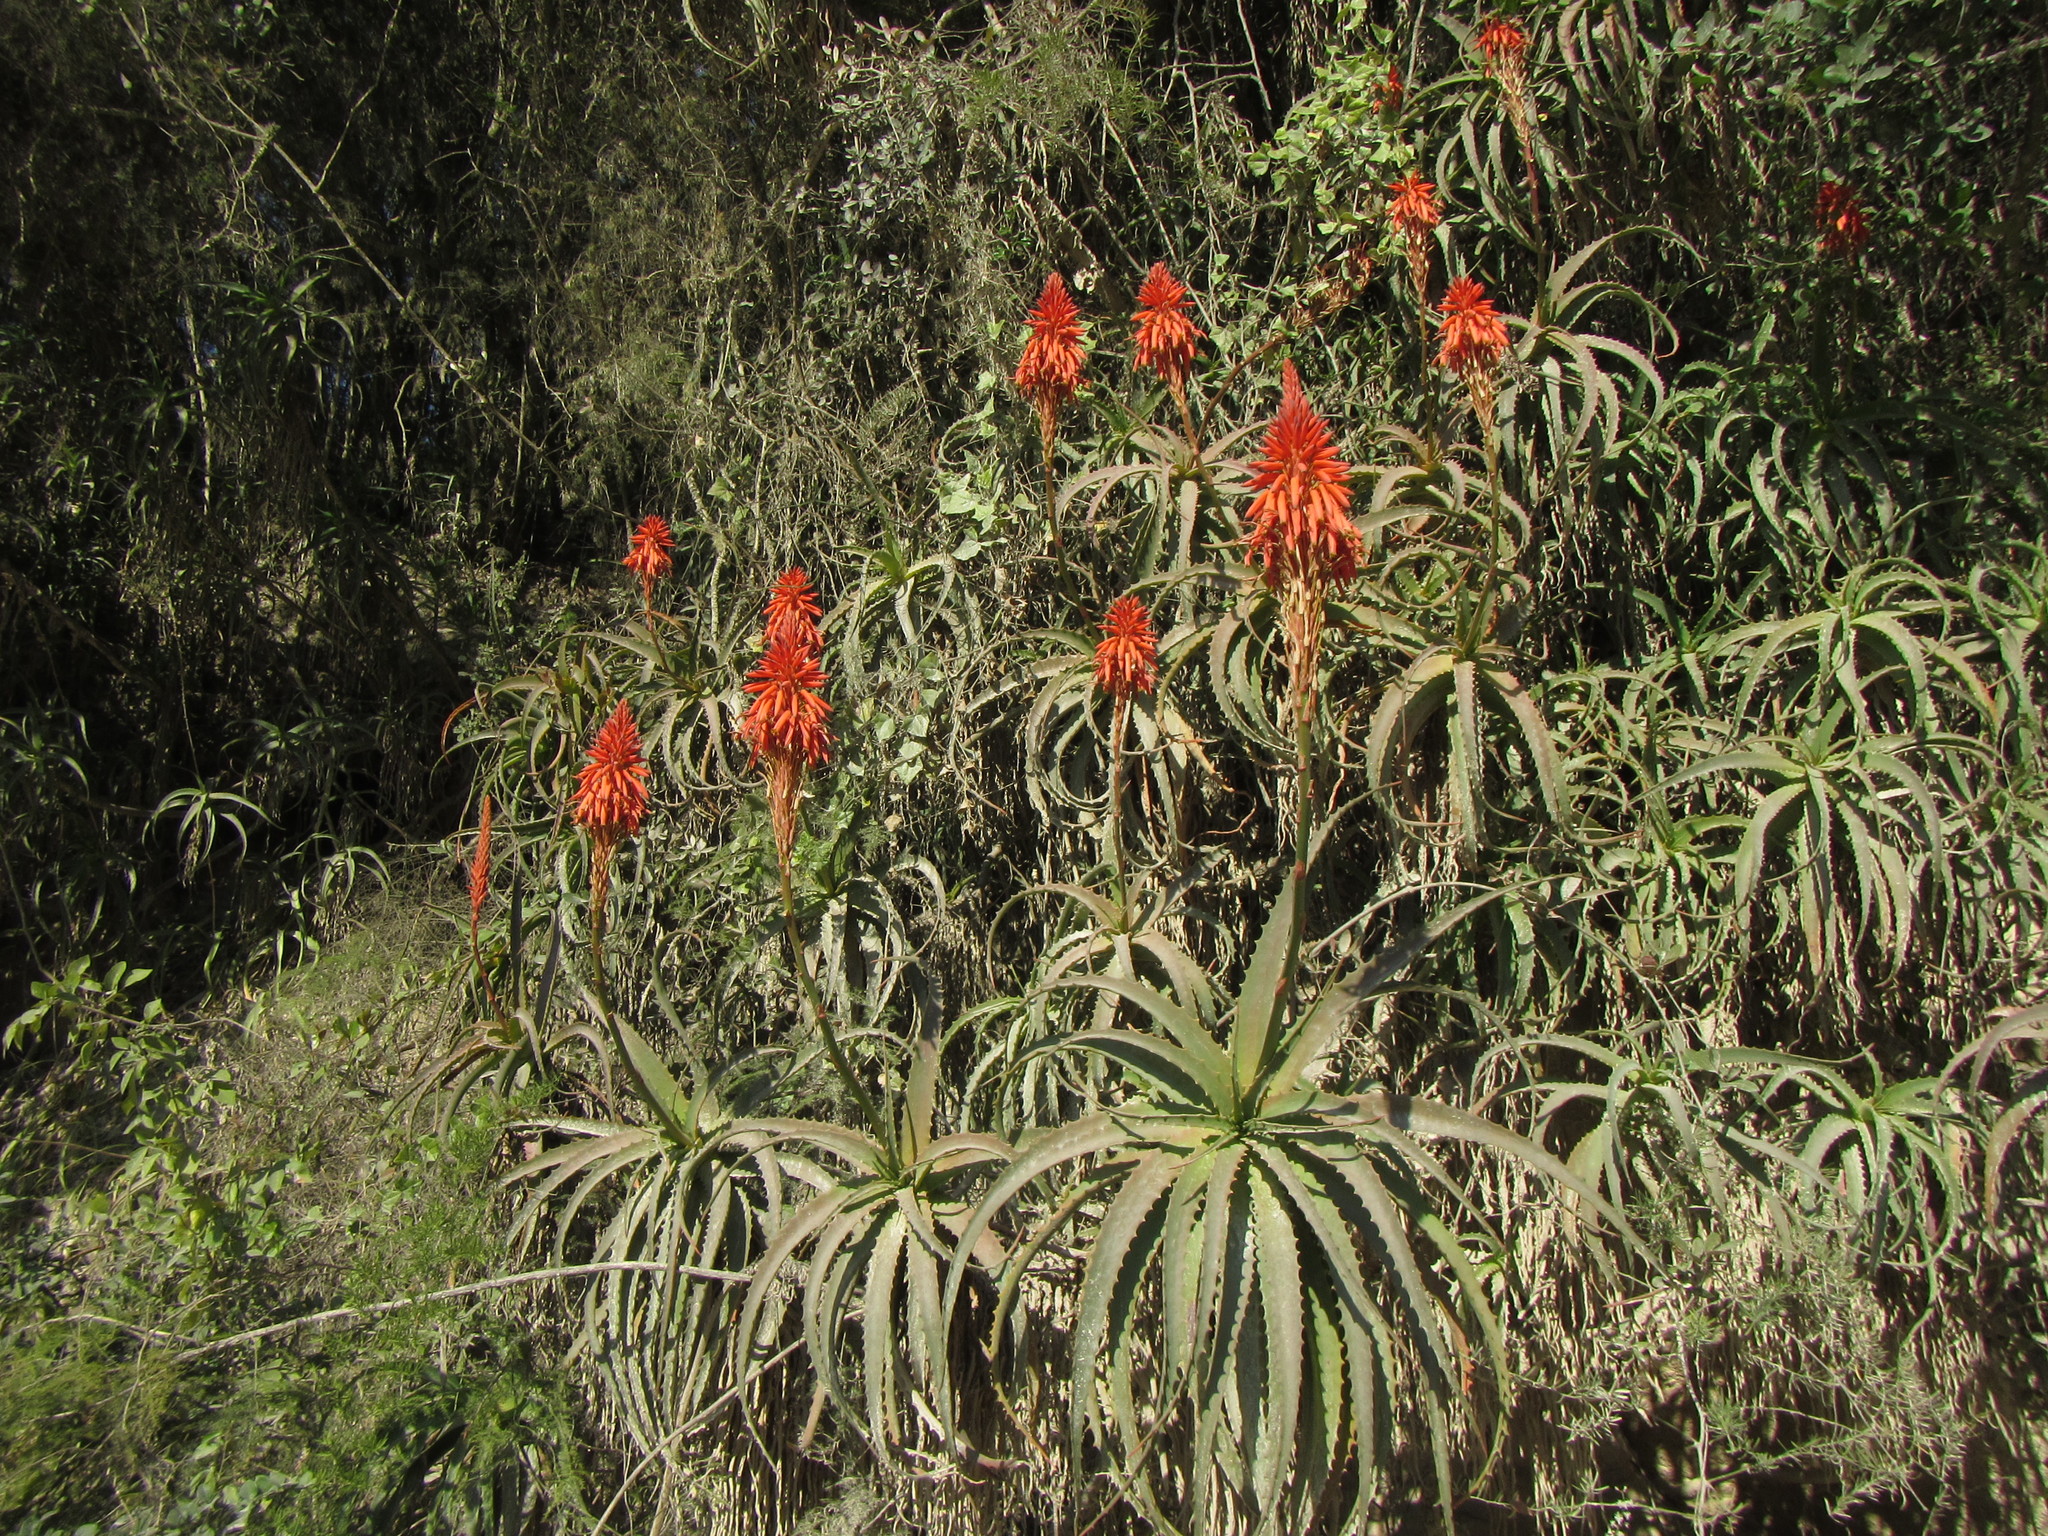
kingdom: Plantae
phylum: Tracheophyta
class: Liliopsida
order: Asparagales
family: Asphodelaceae
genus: Aloe
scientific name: Aloe arborescens
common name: Candelabra aloe
